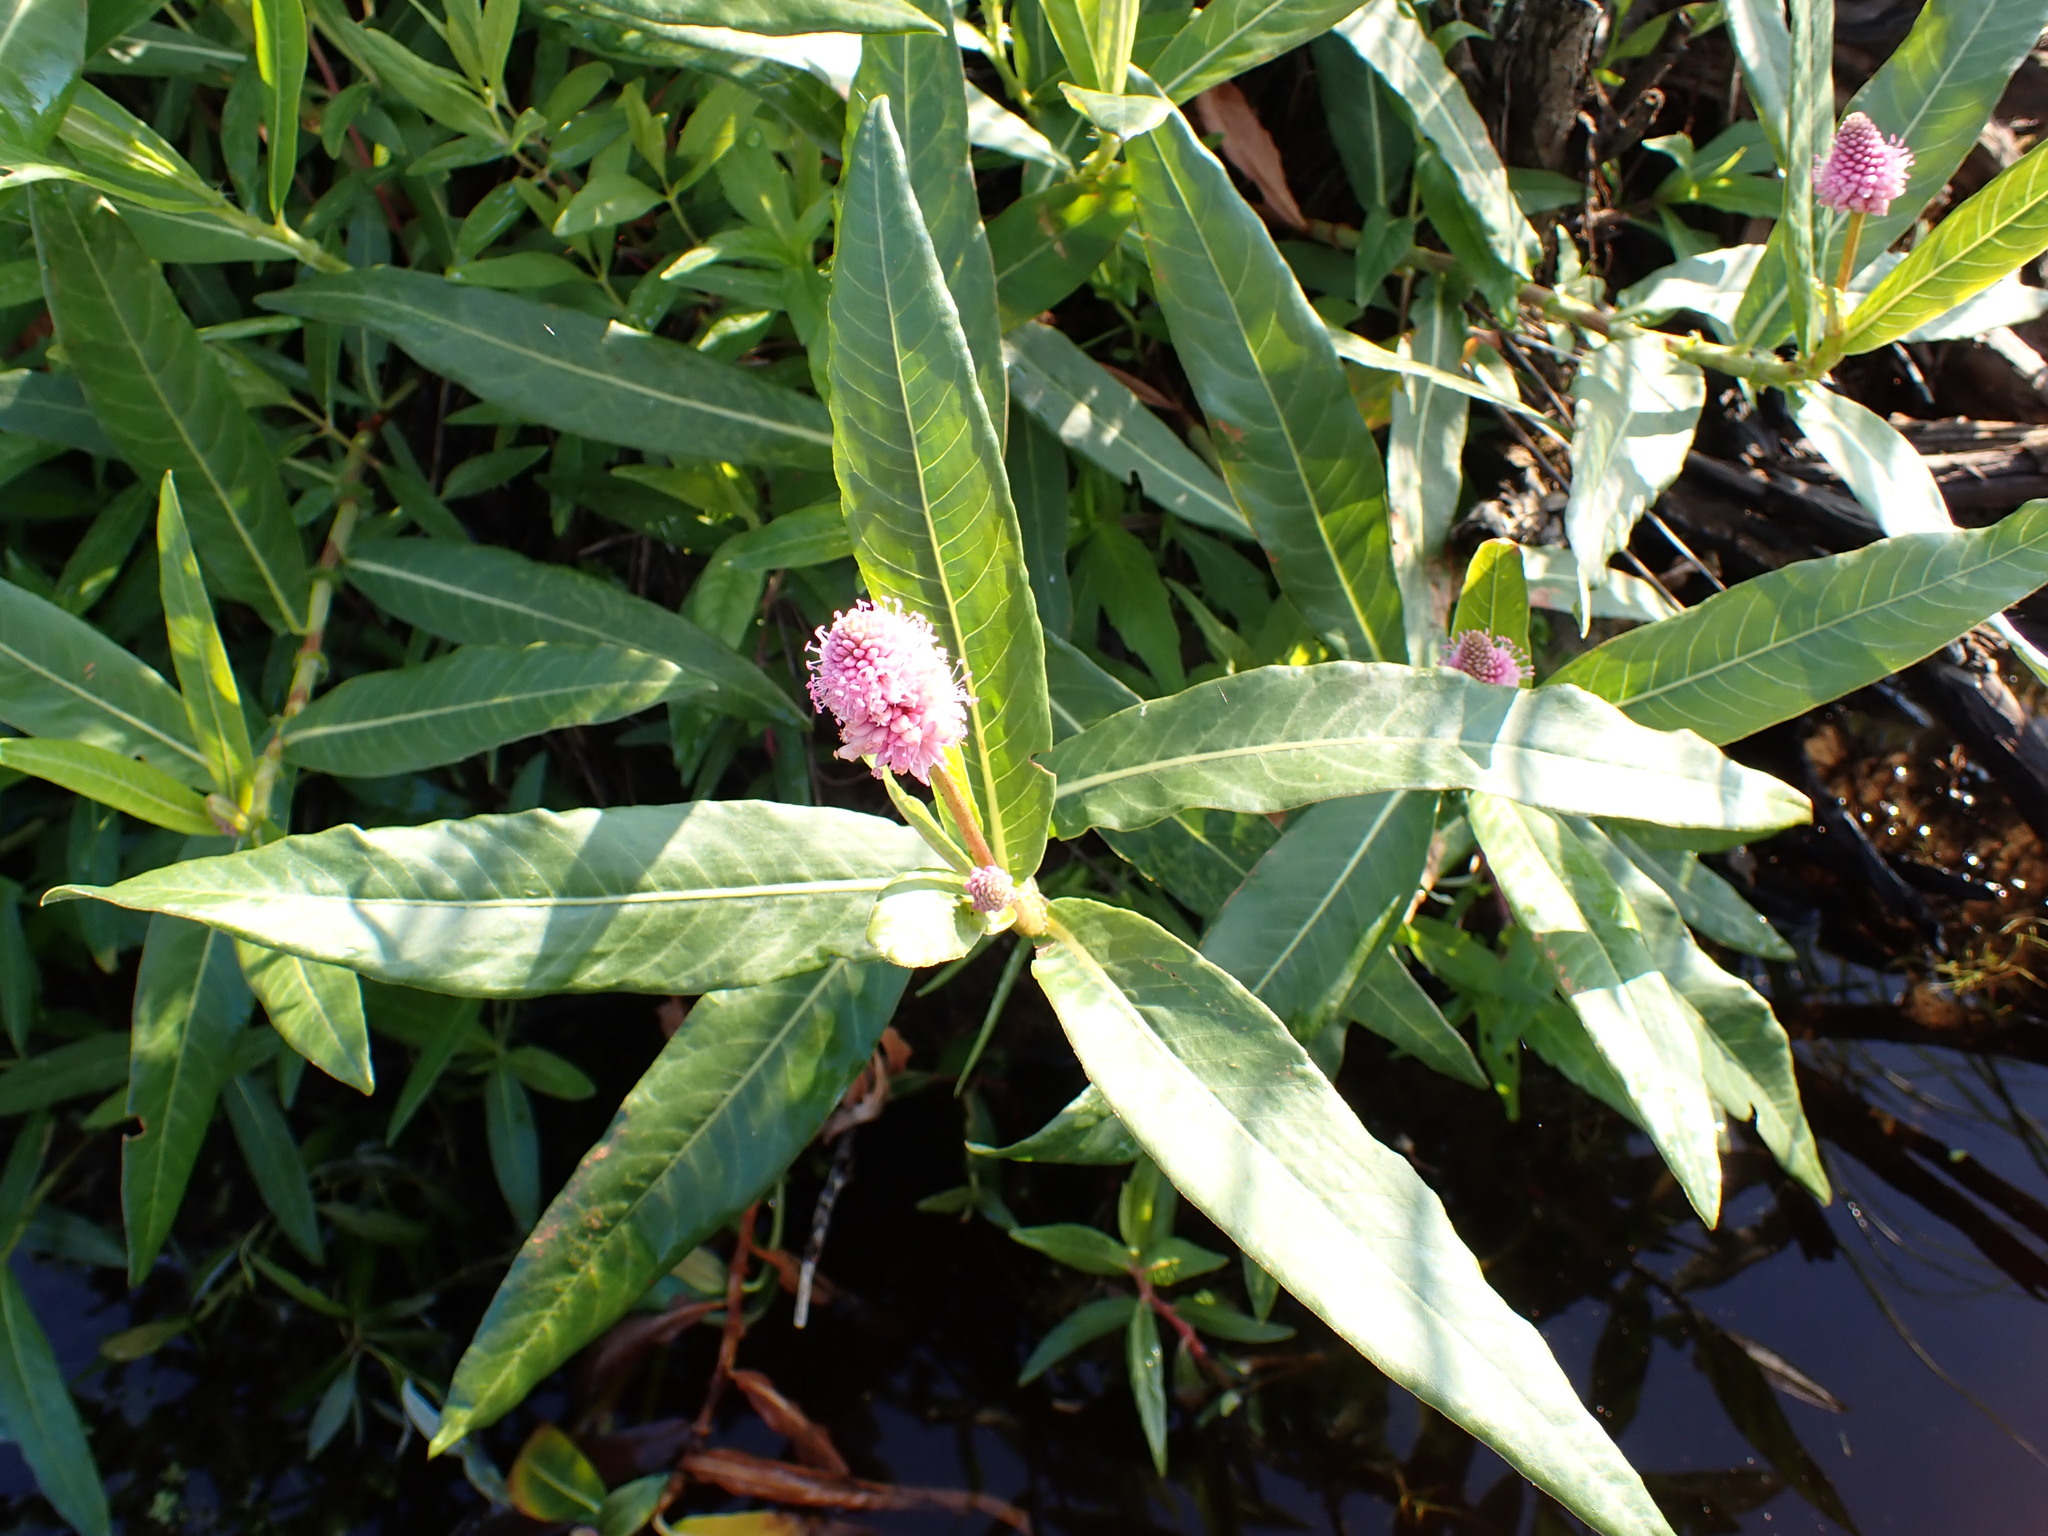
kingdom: Plantae
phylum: Tracheophyta
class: Magnoliopsida
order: Caryophyllales
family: Polygonaceae
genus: Persicaria
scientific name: Persicaria amphibia
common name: Amphibious bistort
